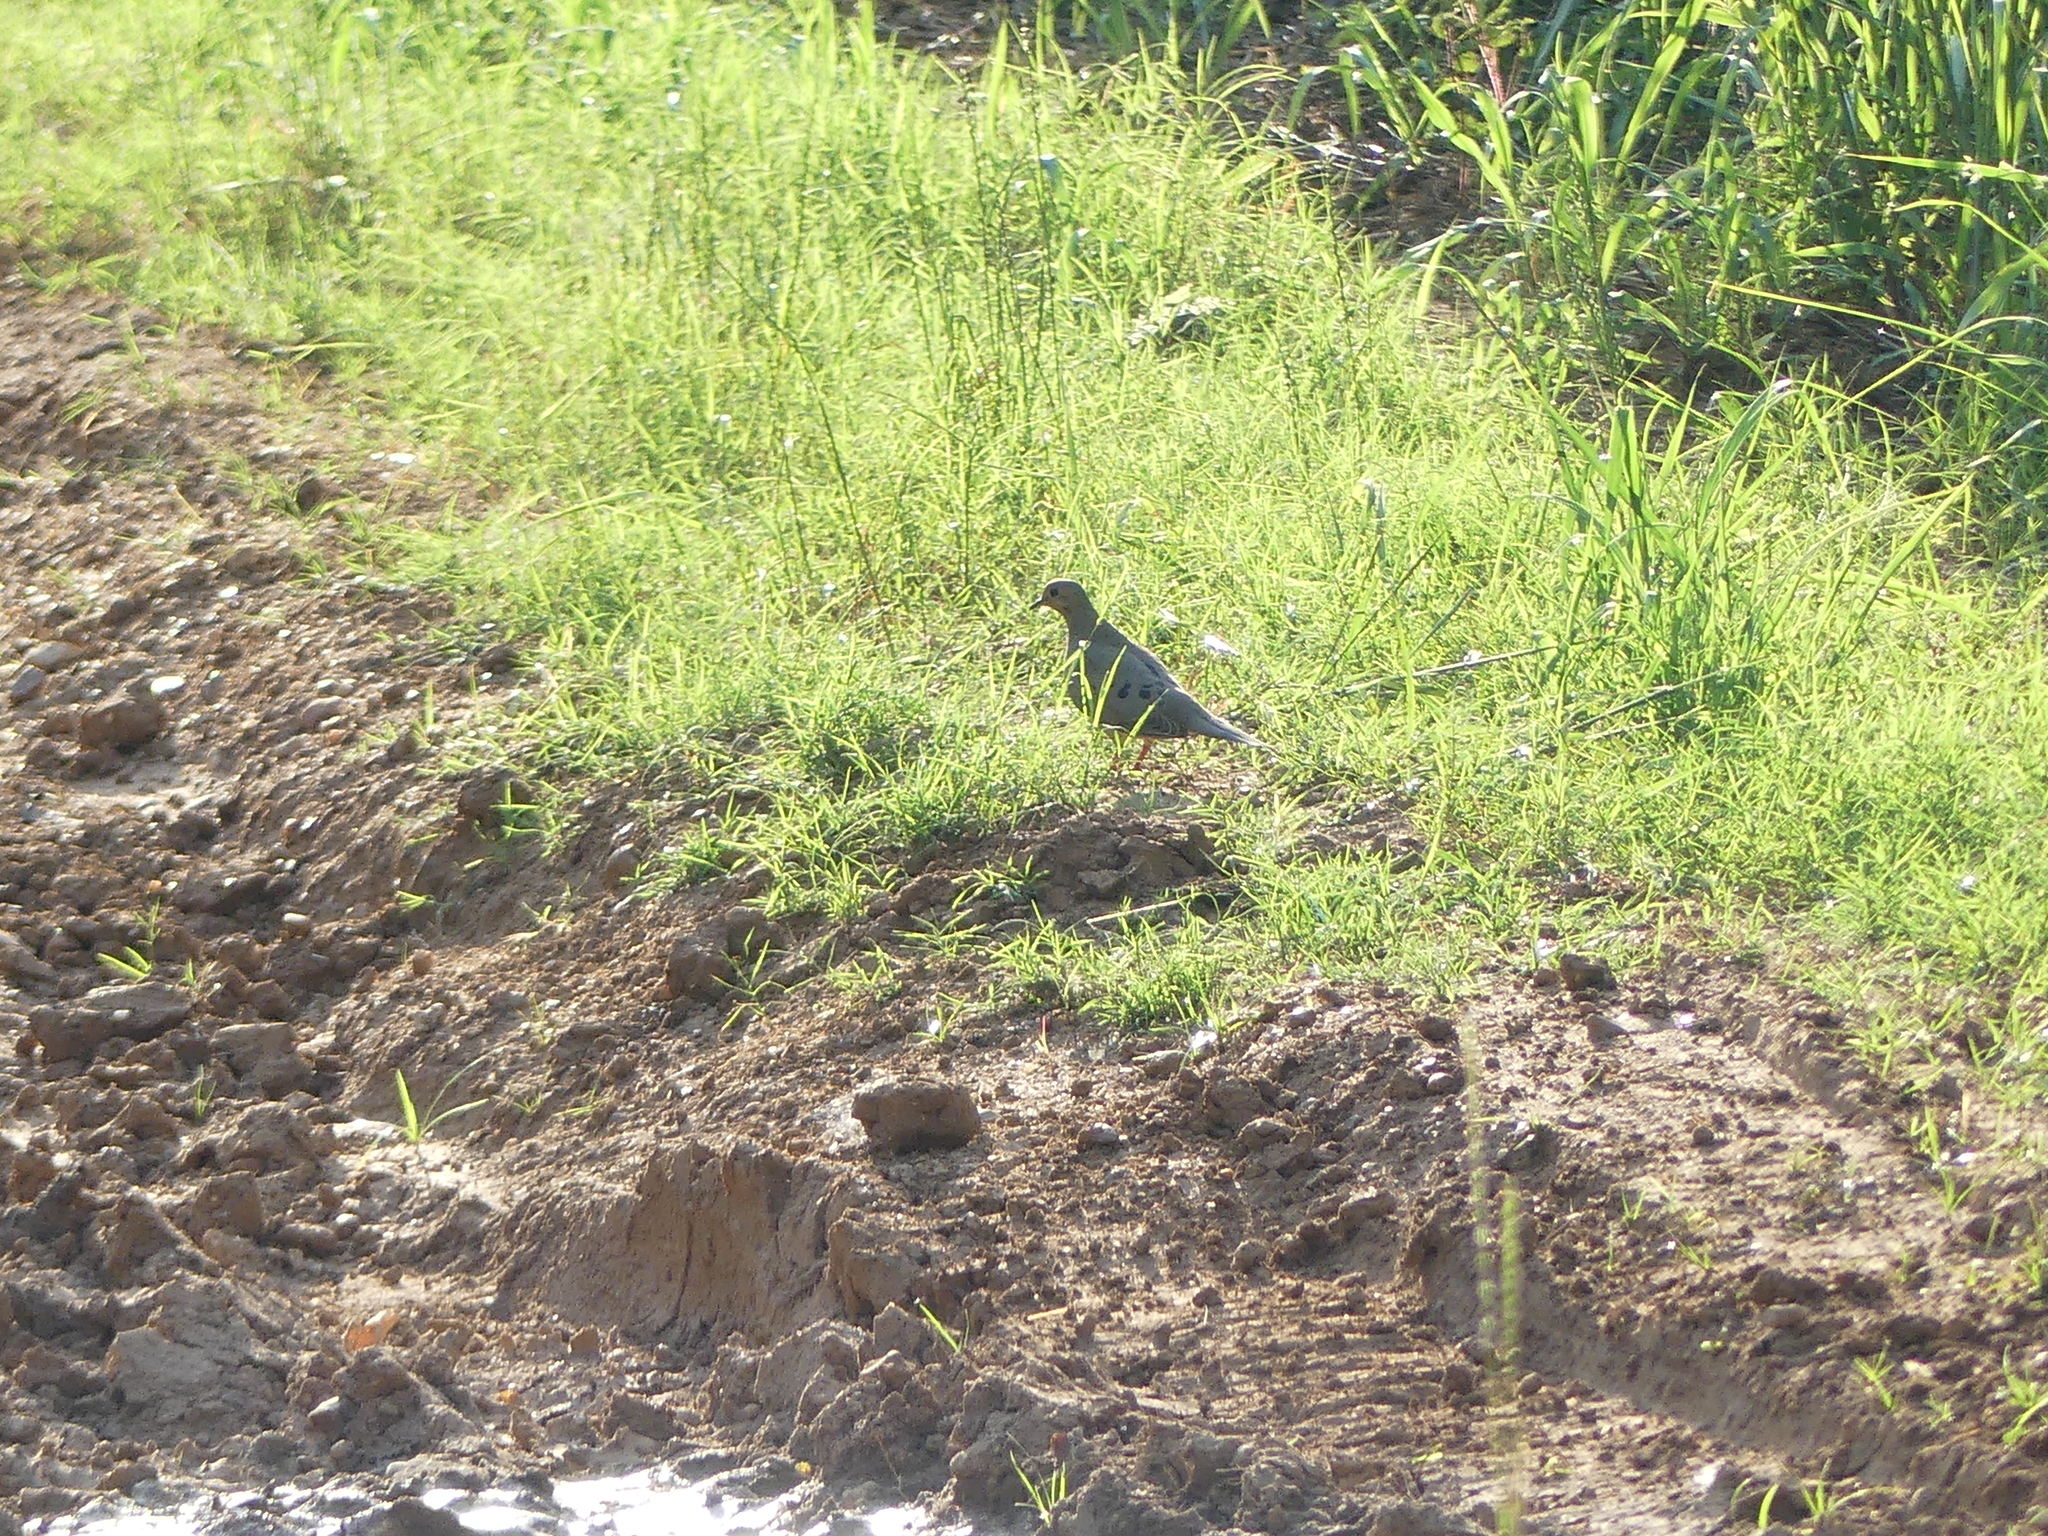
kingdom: Animalia
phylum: Chordata
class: Aves
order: Columbiformes
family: Columbidae
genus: Zenaida
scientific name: Zenaida macroura
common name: Mourning dove
